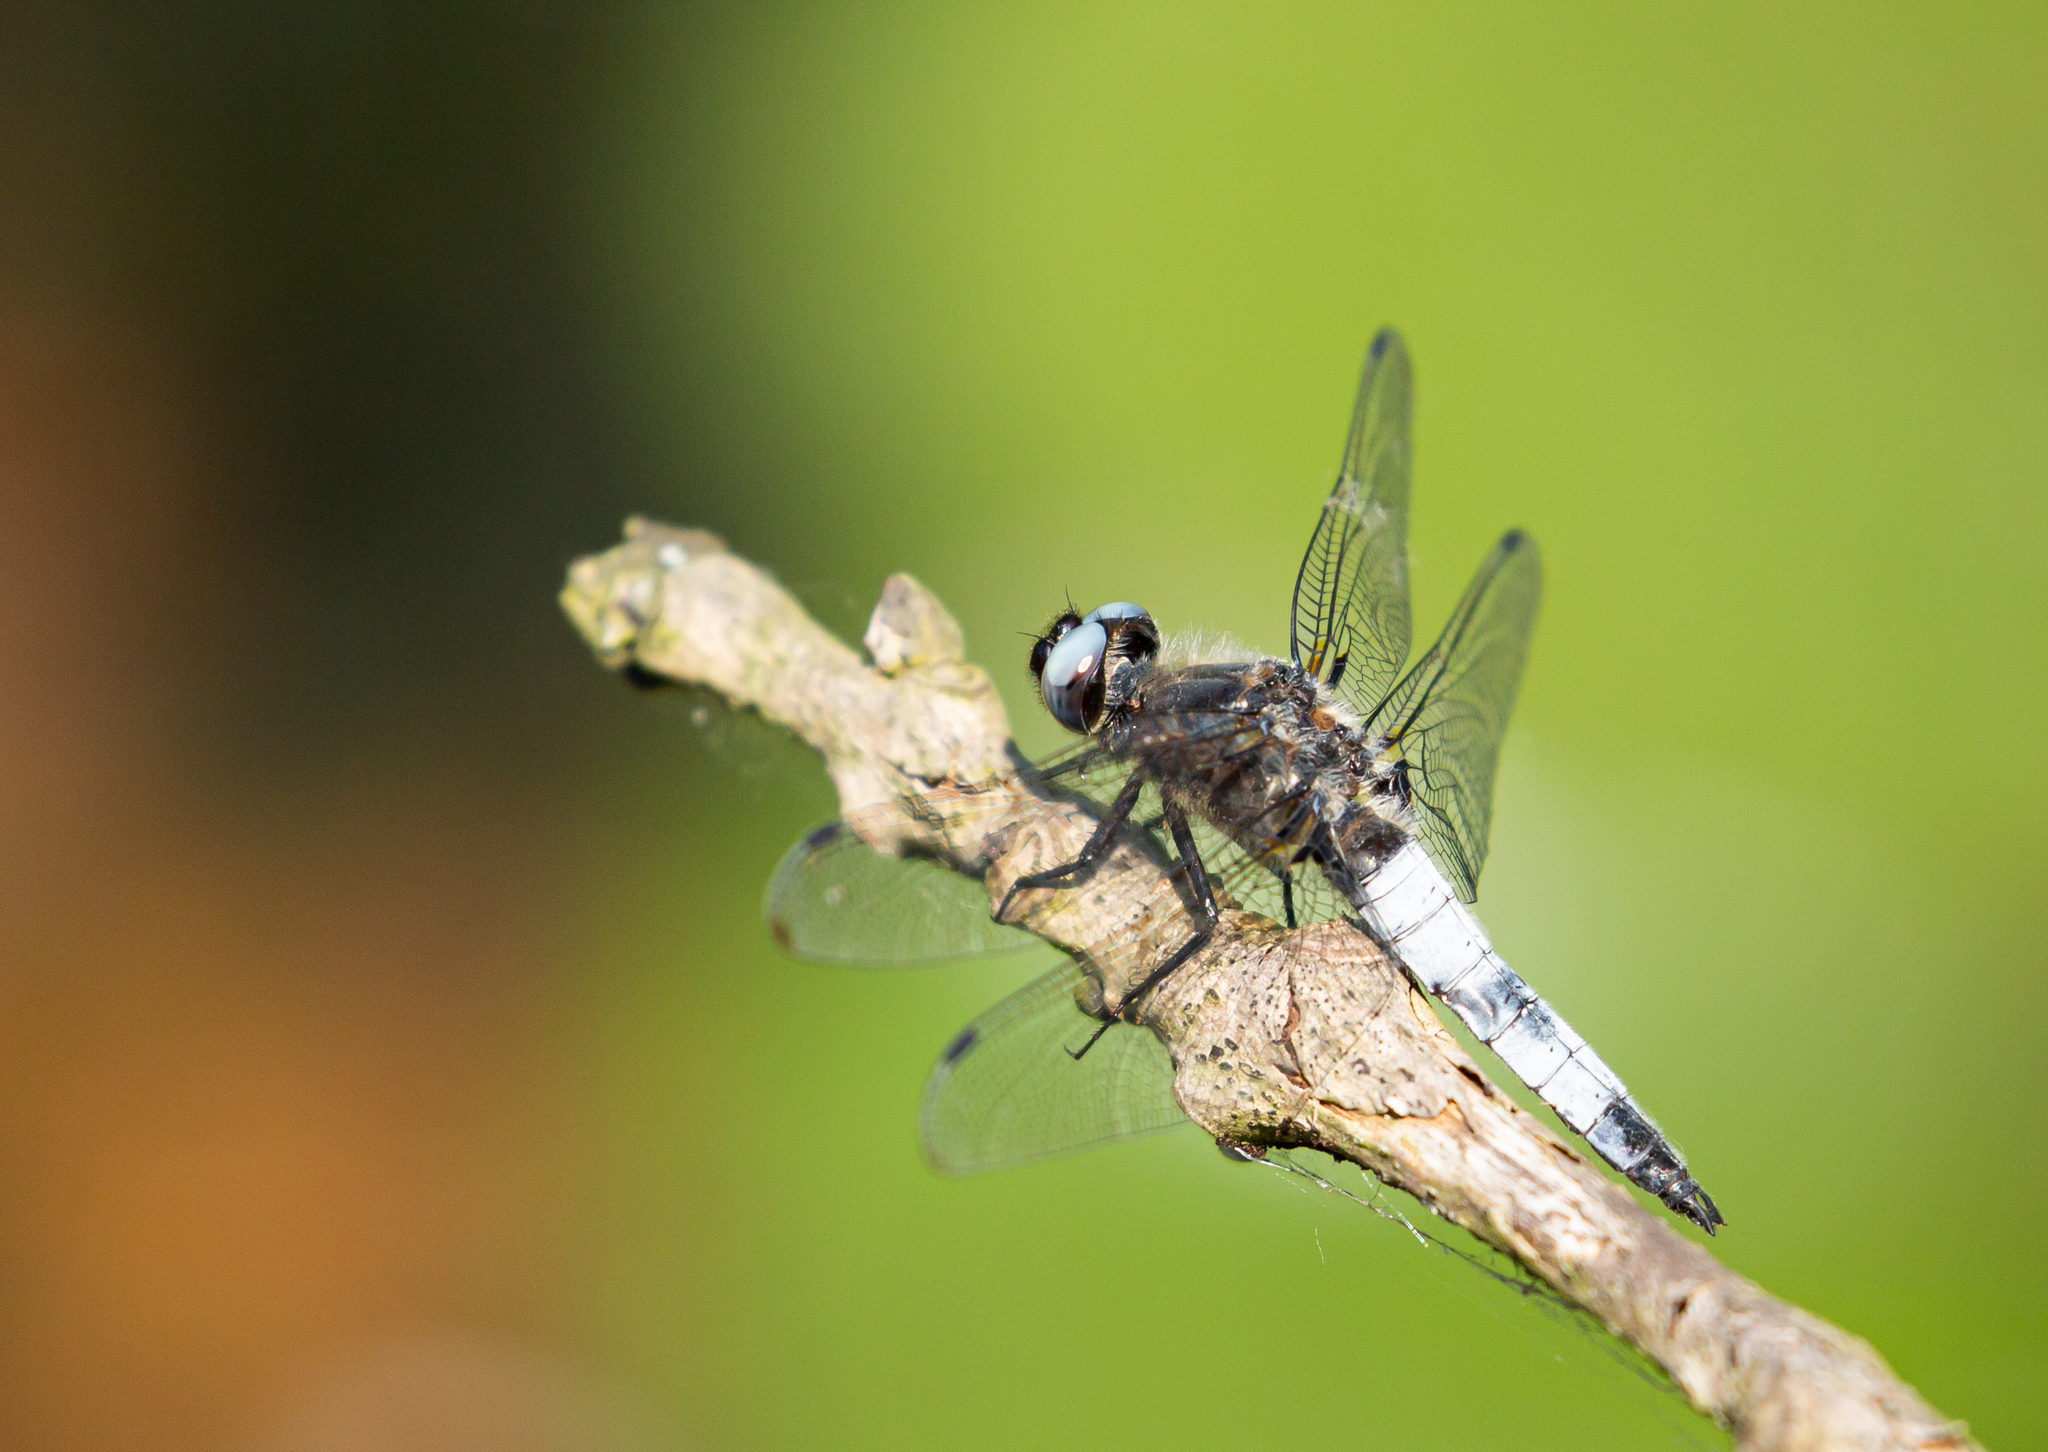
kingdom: Animalia
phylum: Arthropoda
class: Insecta
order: Odonata
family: Libellulidae
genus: Libellula
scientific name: Libellula fulva
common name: Blue chaser
